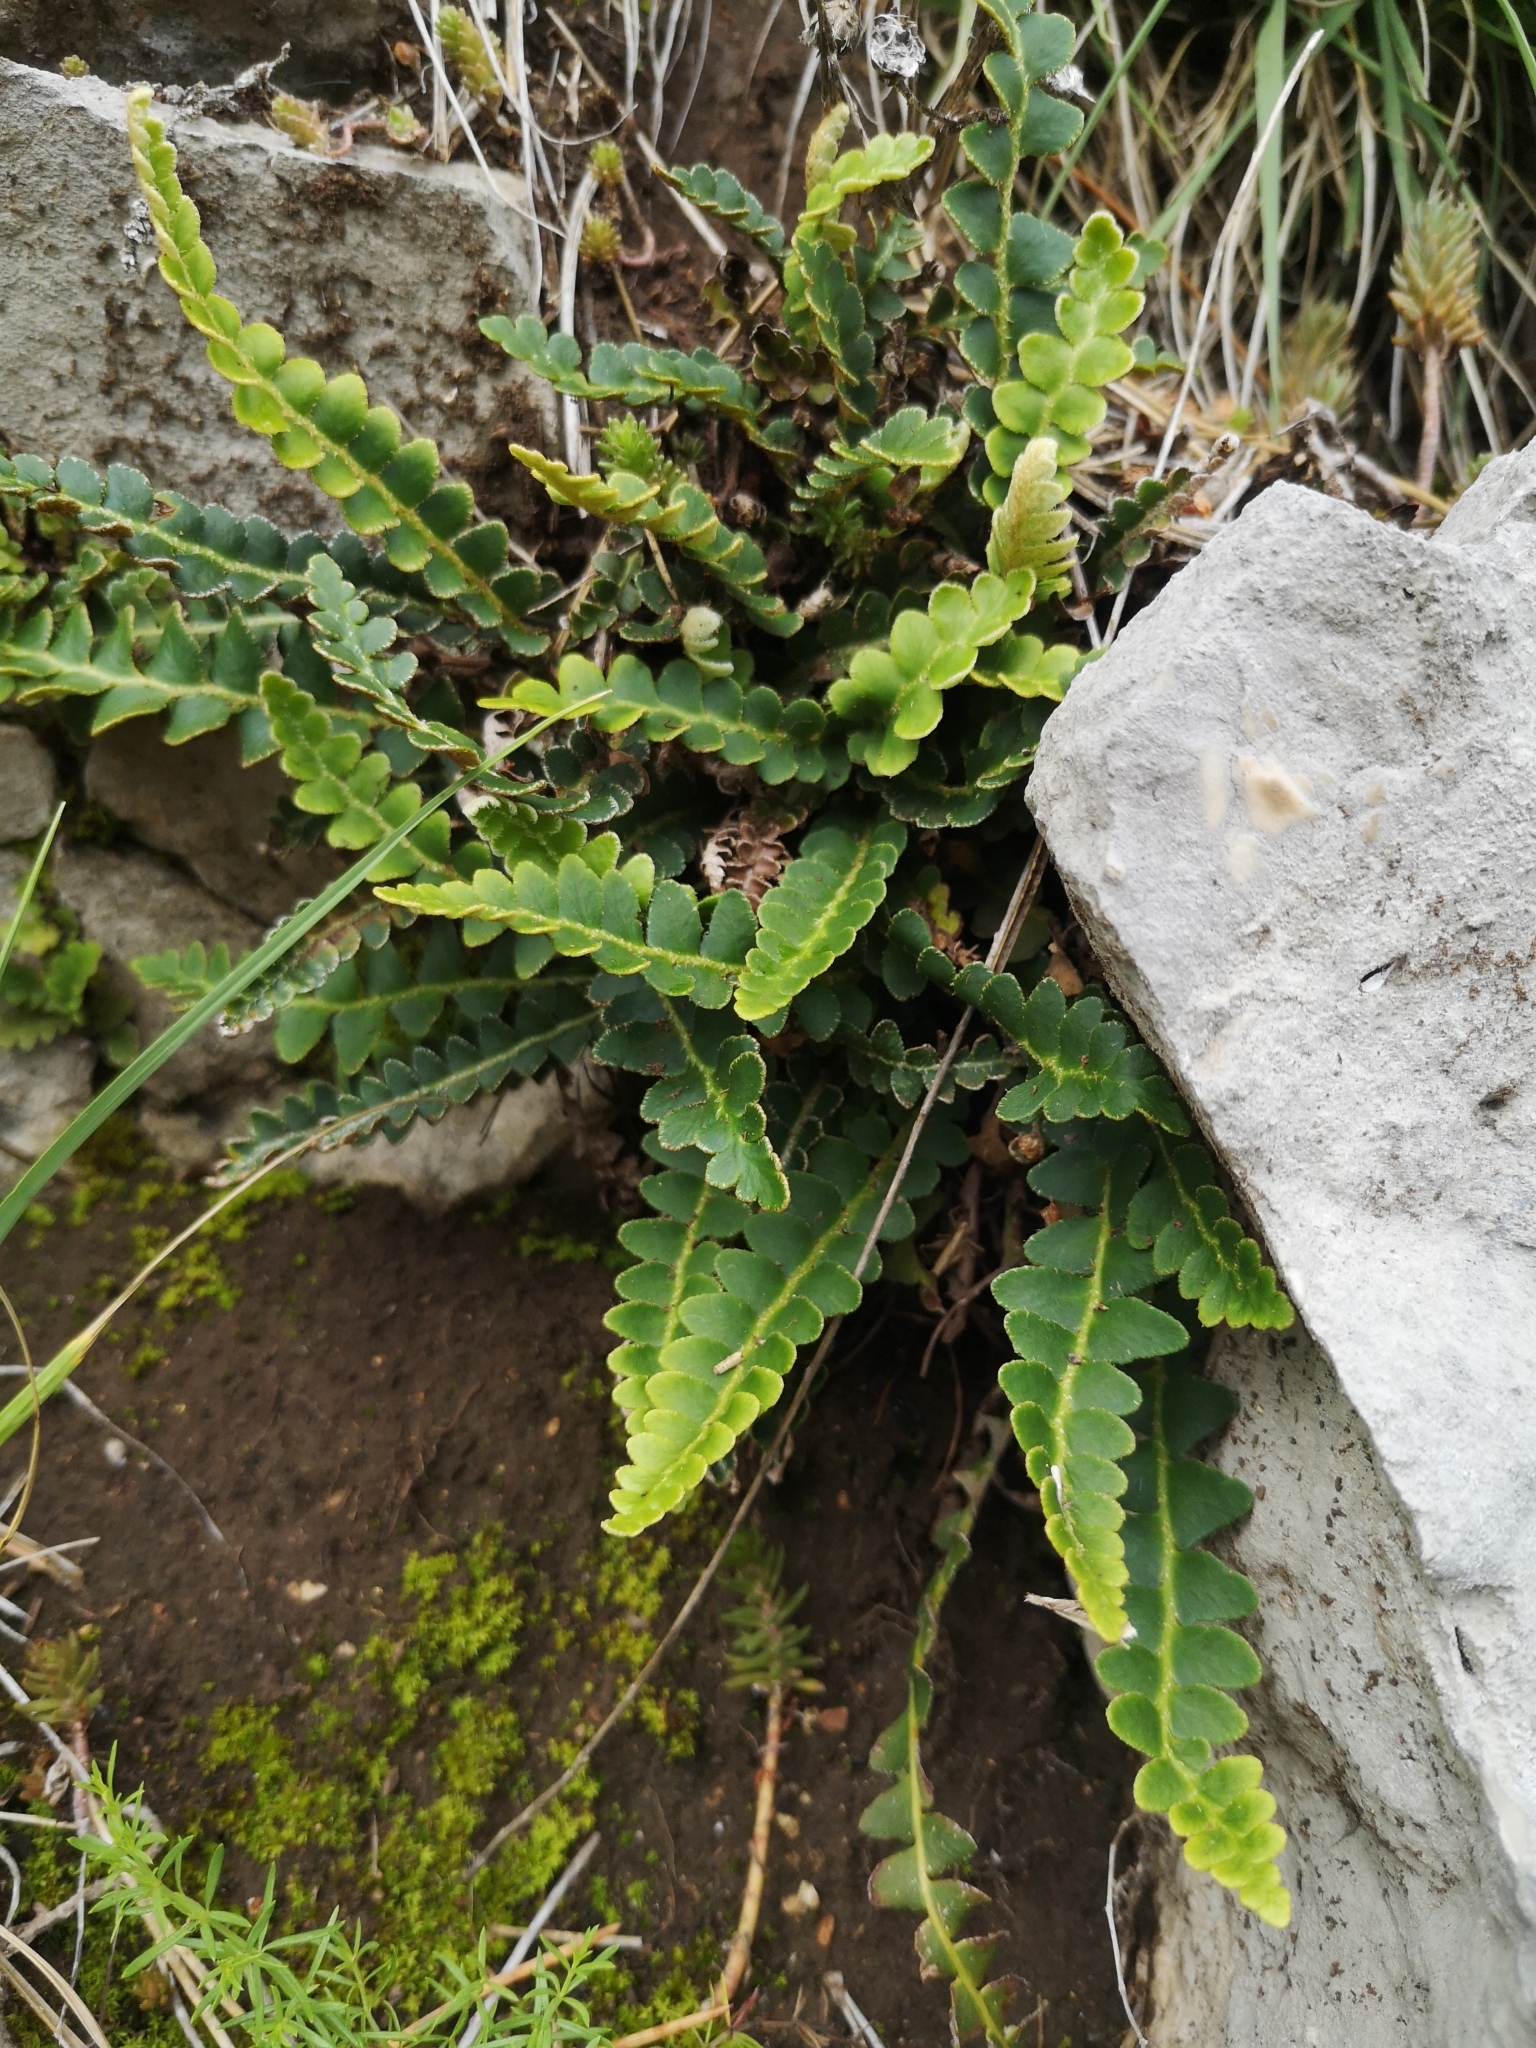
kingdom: Plantae
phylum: Tracheophyta
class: Polypodiopsida
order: Polypodiales
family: Aspleniaceae
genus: Asplenium
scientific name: Asplenium ceterach
